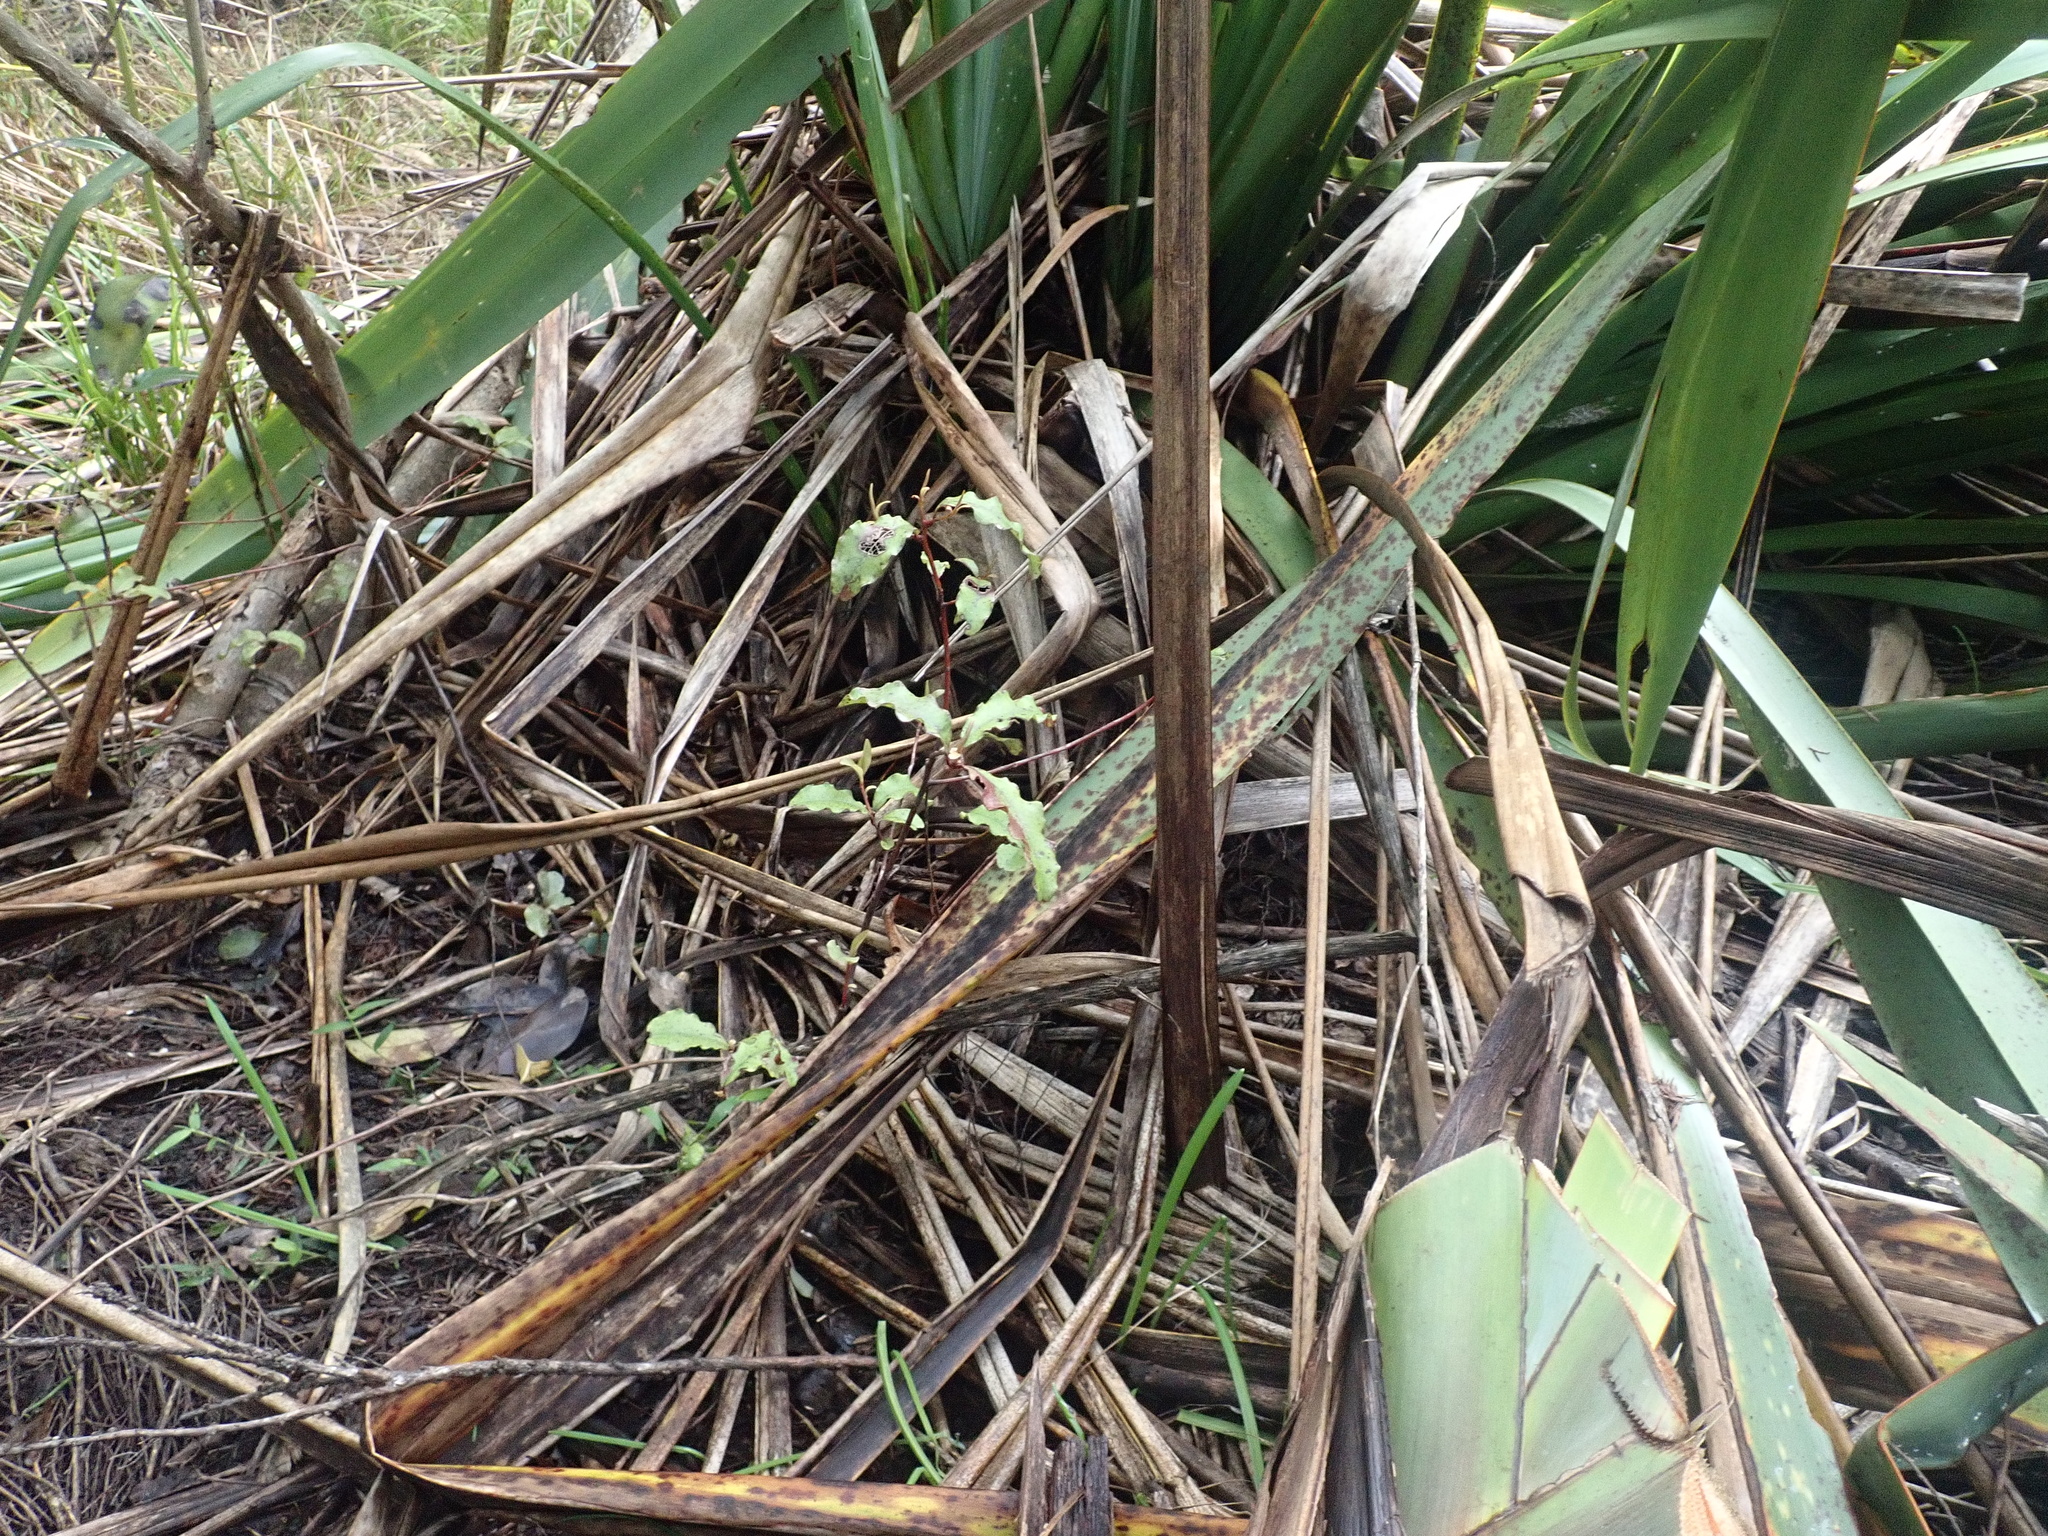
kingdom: Plantae
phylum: Tracheophyta
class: Magnoliopsida
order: Ericales
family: Primulaceae
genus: Myrsine
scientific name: Myrsine australis
